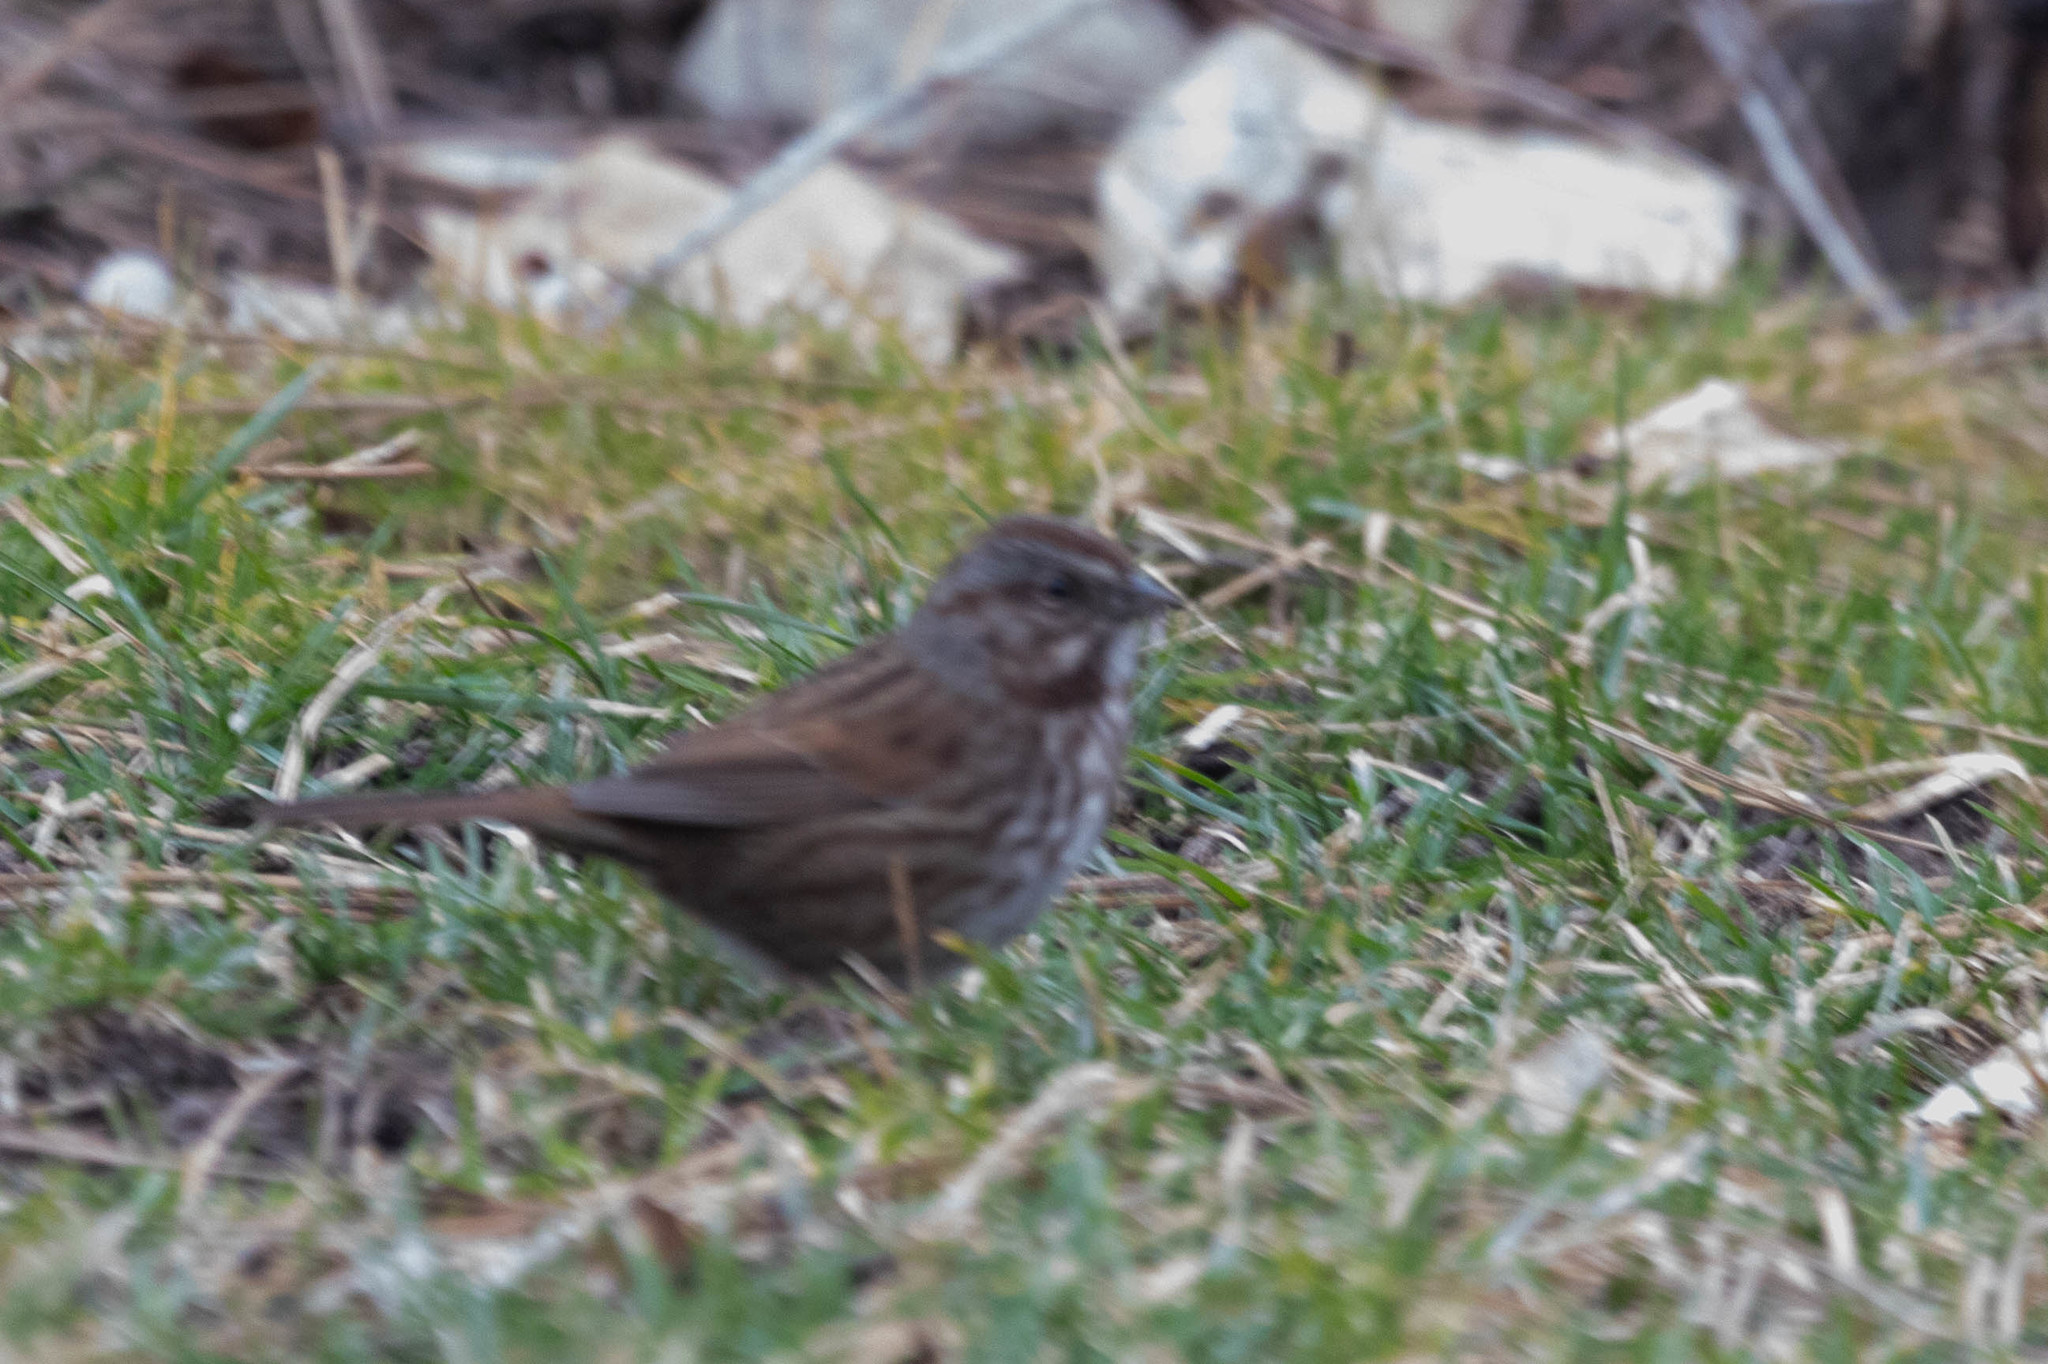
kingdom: Animalia
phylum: Chordata
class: Aves
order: Passeriformes
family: Passerellidae
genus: Melospiza
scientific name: Melospiza melodia
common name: Song sparrow
